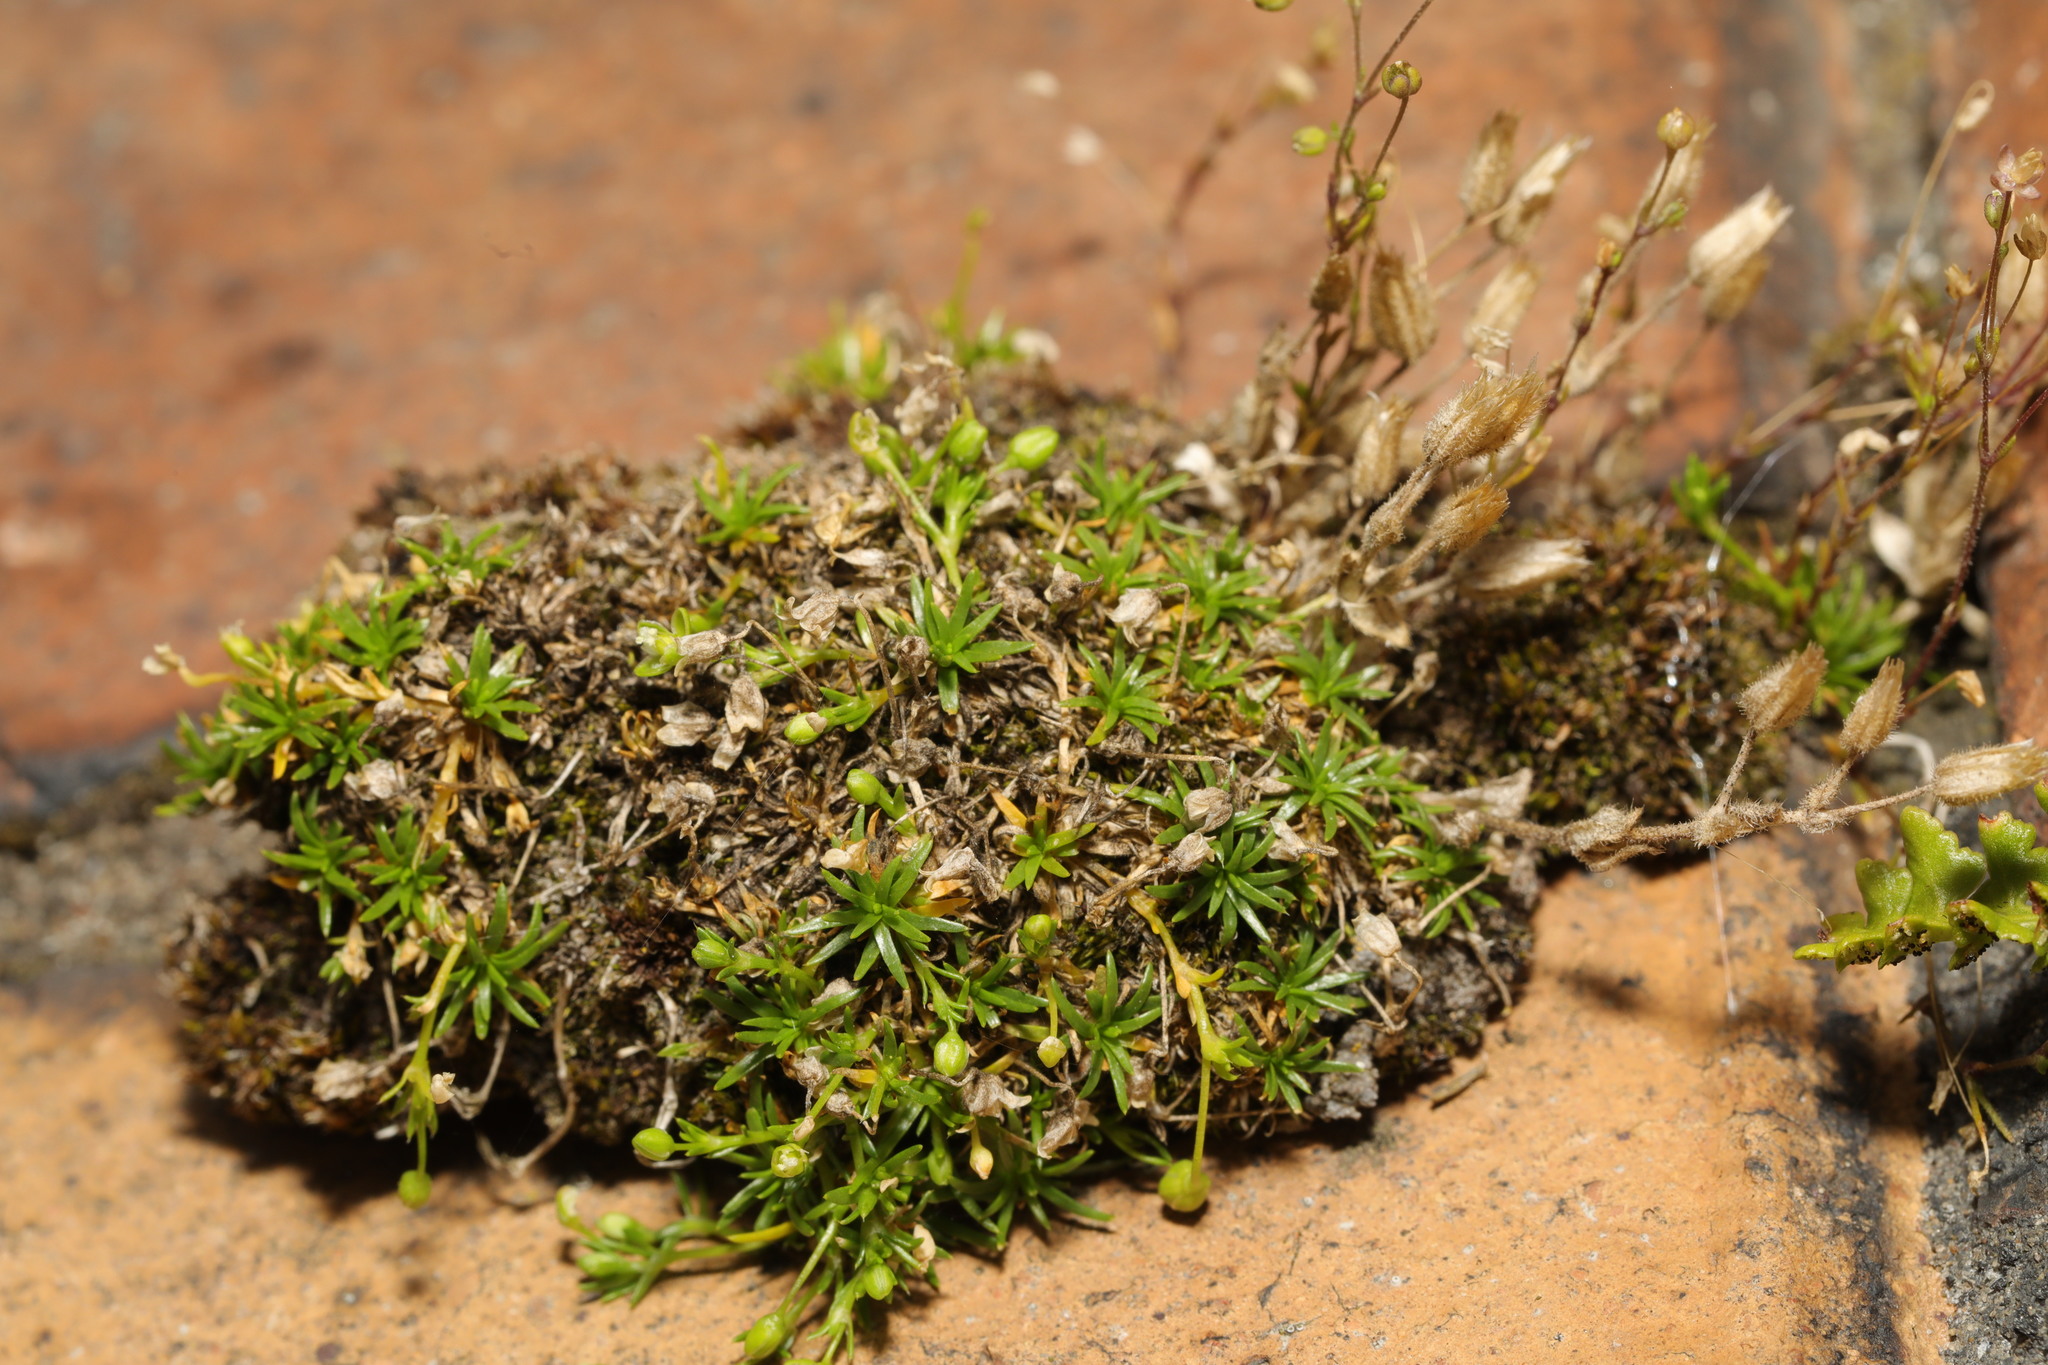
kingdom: Plantae
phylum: Tracheophyta
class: Magnoliopsida
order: Caryophyllales
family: Caryophyllaceae
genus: Sagina
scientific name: Sagina procumbens
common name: Procumbent pearlwort
